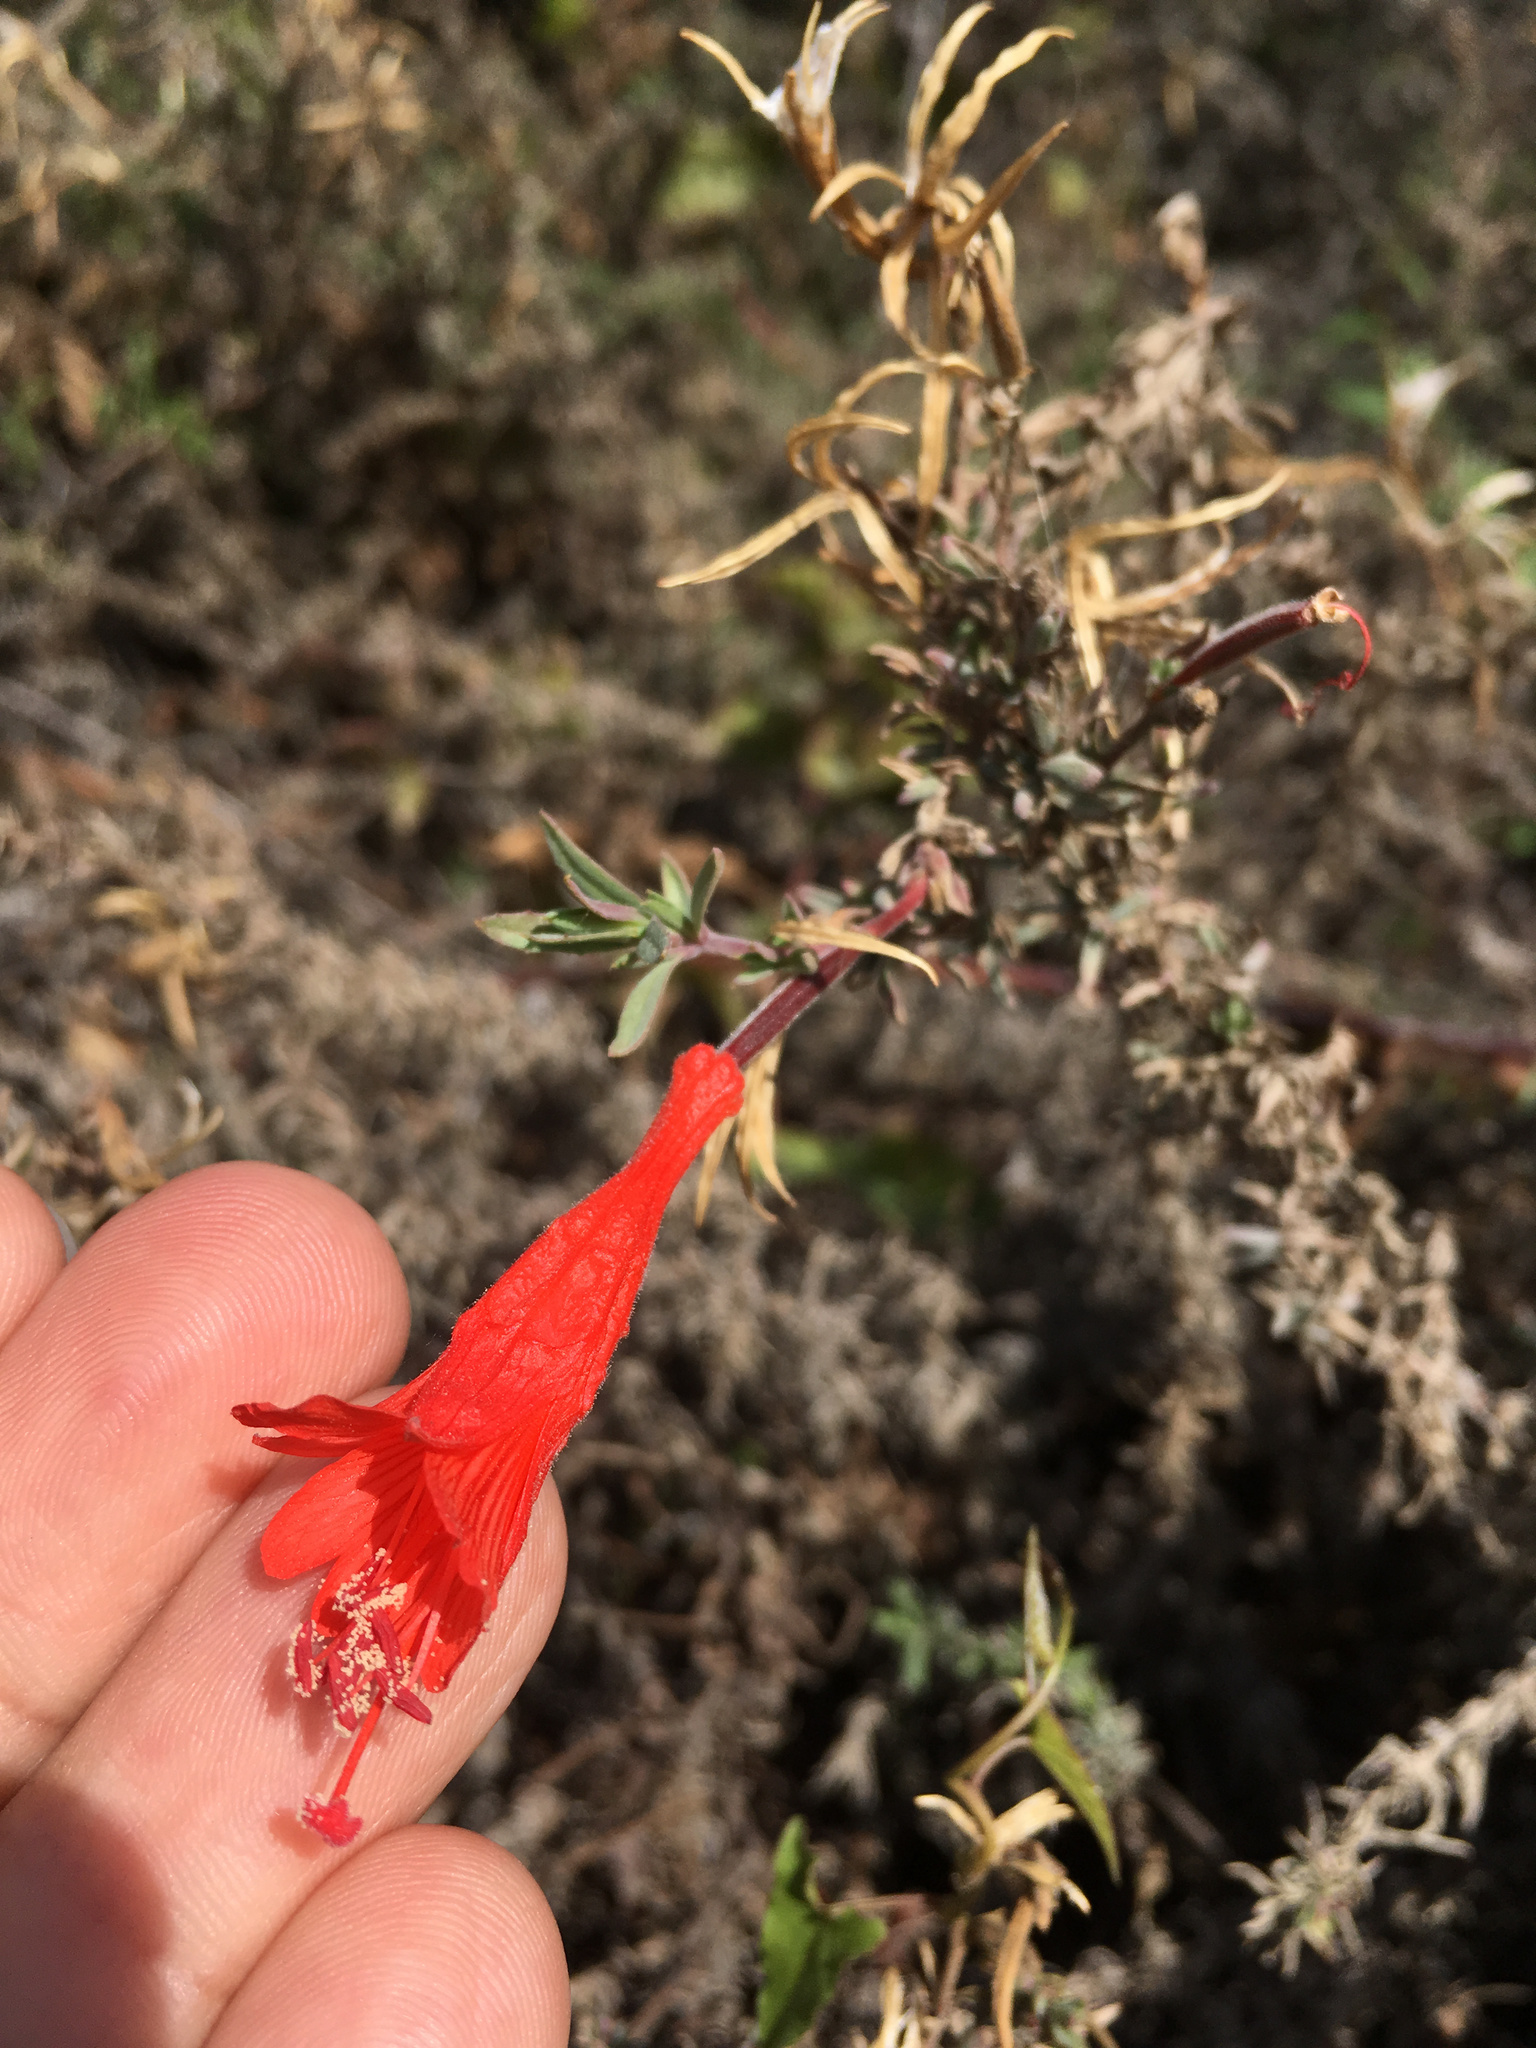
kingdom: Plantae
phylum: Tracheophyta
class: Magnoliopsida
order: Myrtales
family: Onagraceae
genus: Epilobium
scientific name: Epilobium canum
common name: California-fuchsia
